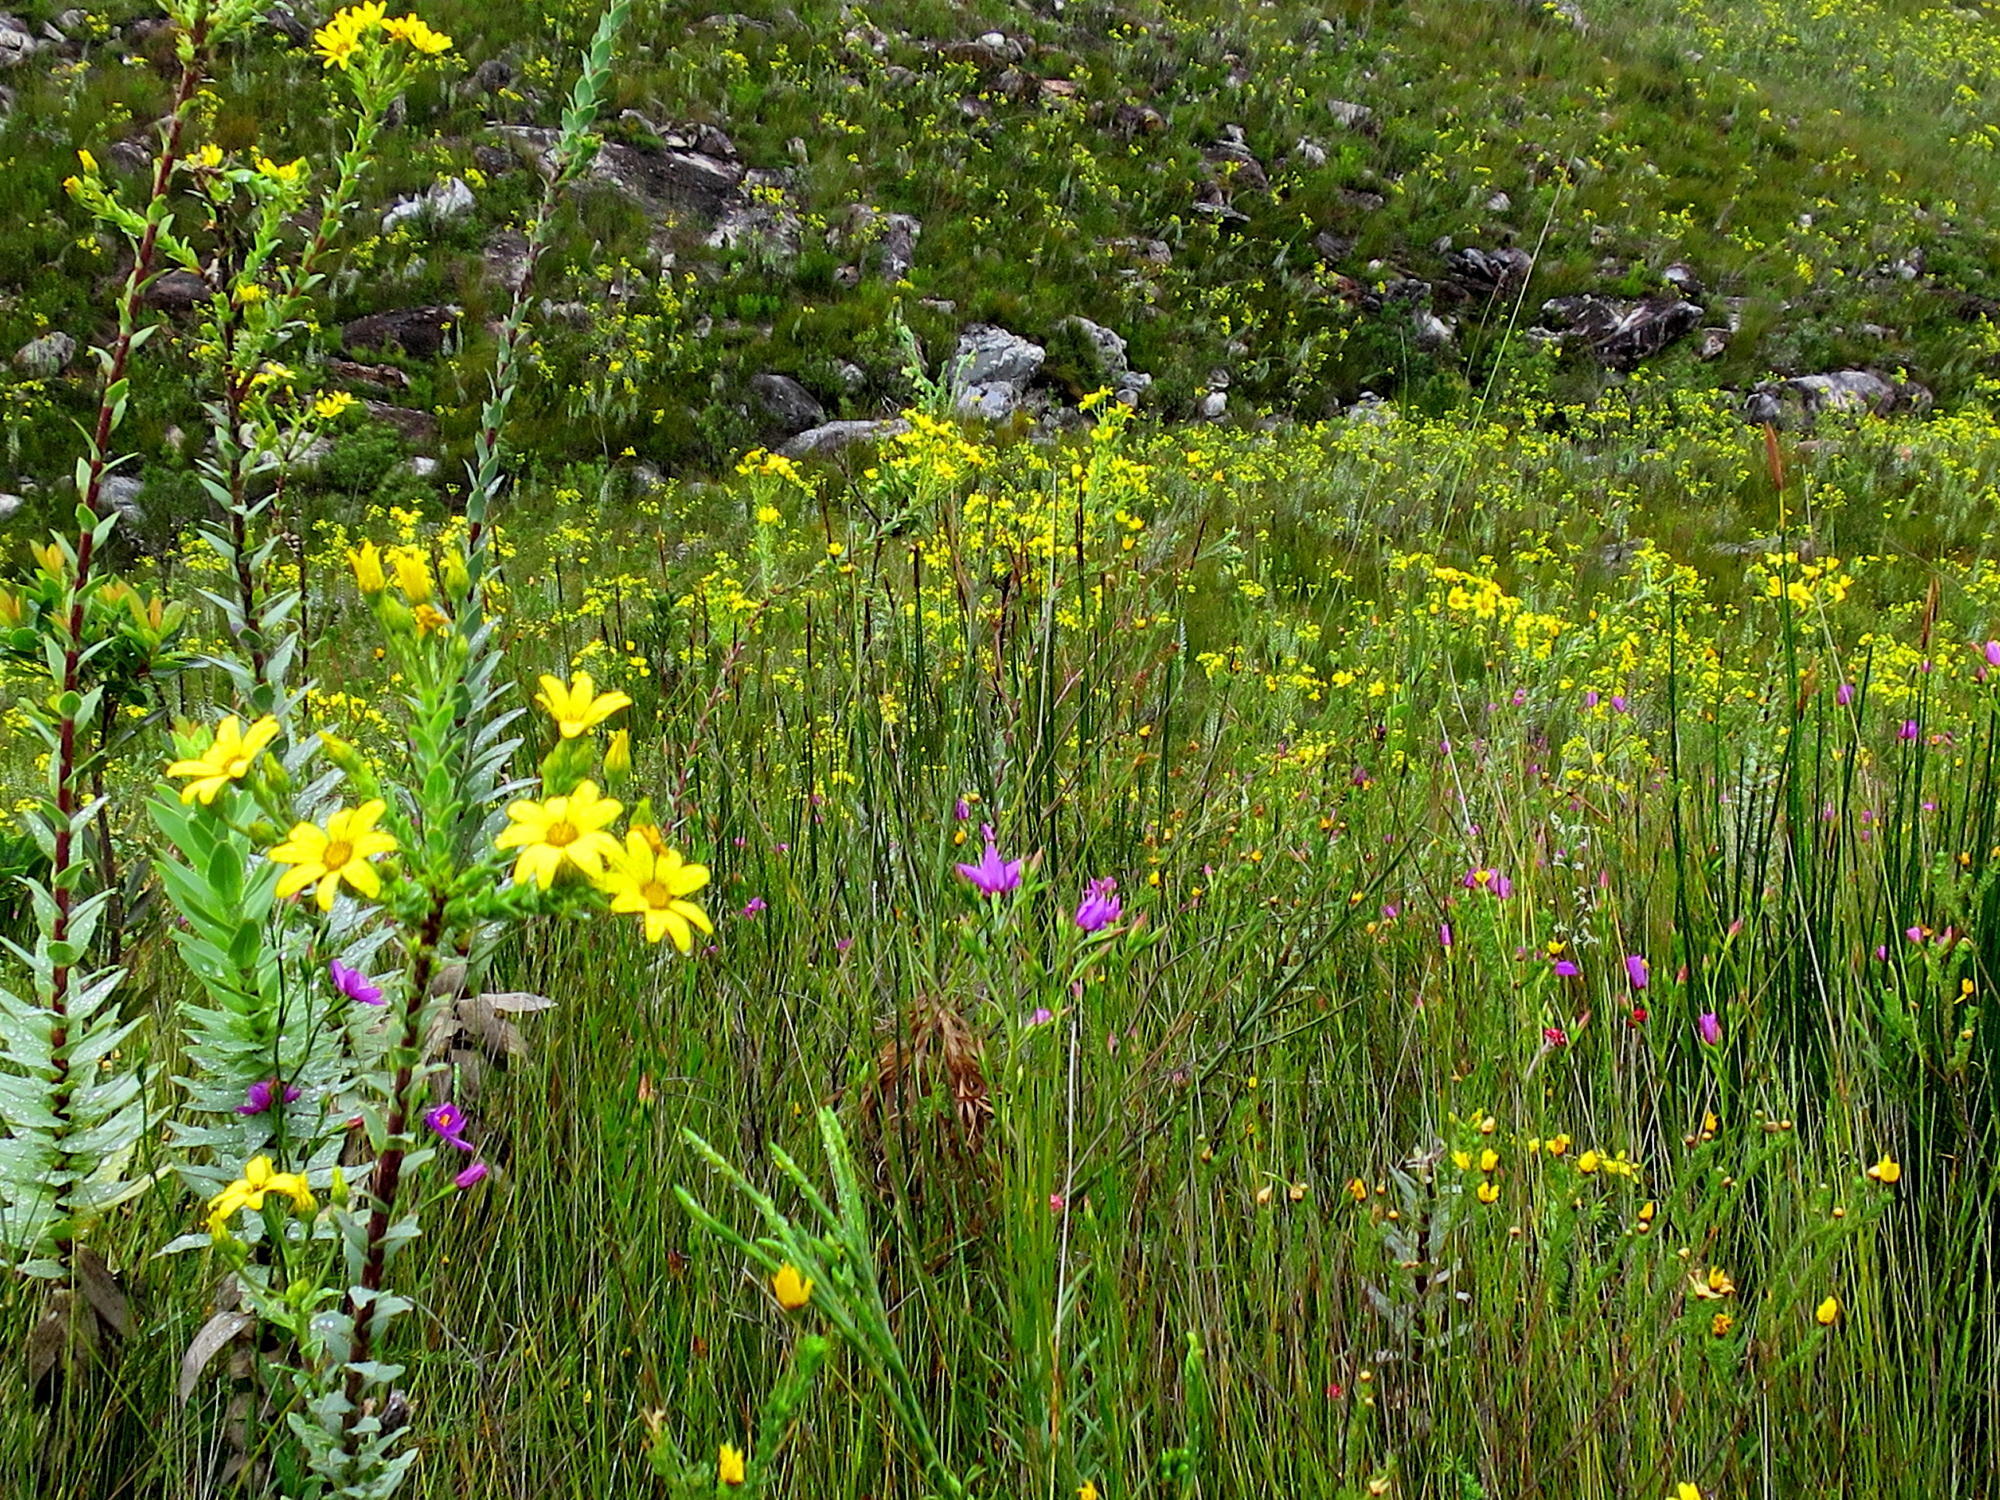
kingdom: Plantae
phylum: Tracheophyta
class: Magnoliopsida
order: Asterales
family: Asteraceae
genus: Osteospermum
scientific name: Osteospermum corymbosum
